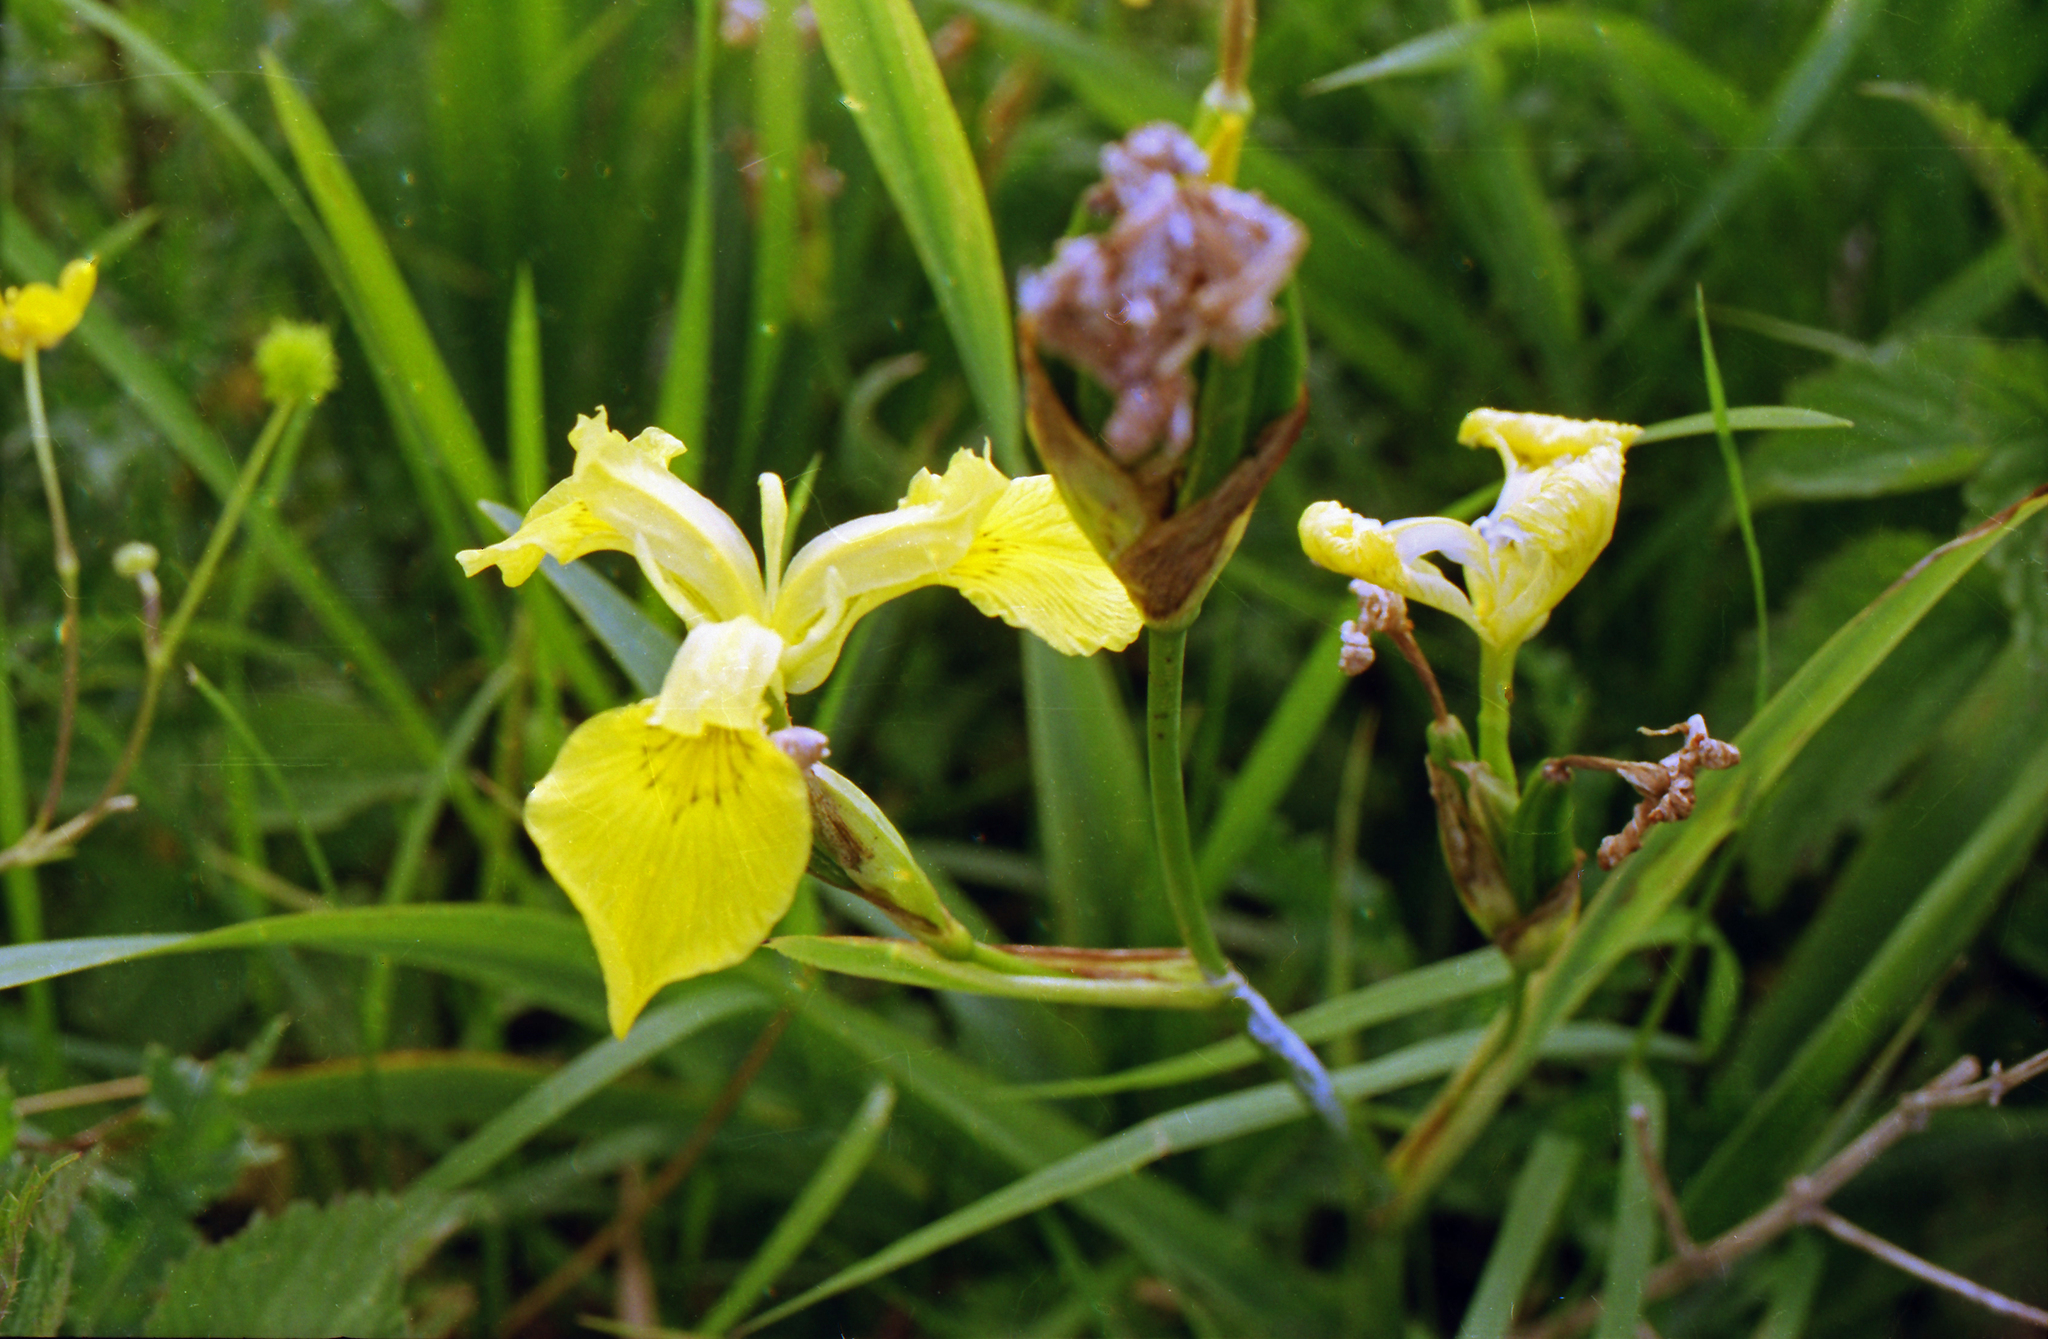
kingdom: Plantae
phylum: Tracheophyta
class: Liliopsida
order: Asparagales
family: Iridaceae
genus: Iris
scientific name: Iris pseudacorus
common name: Yellow flag
